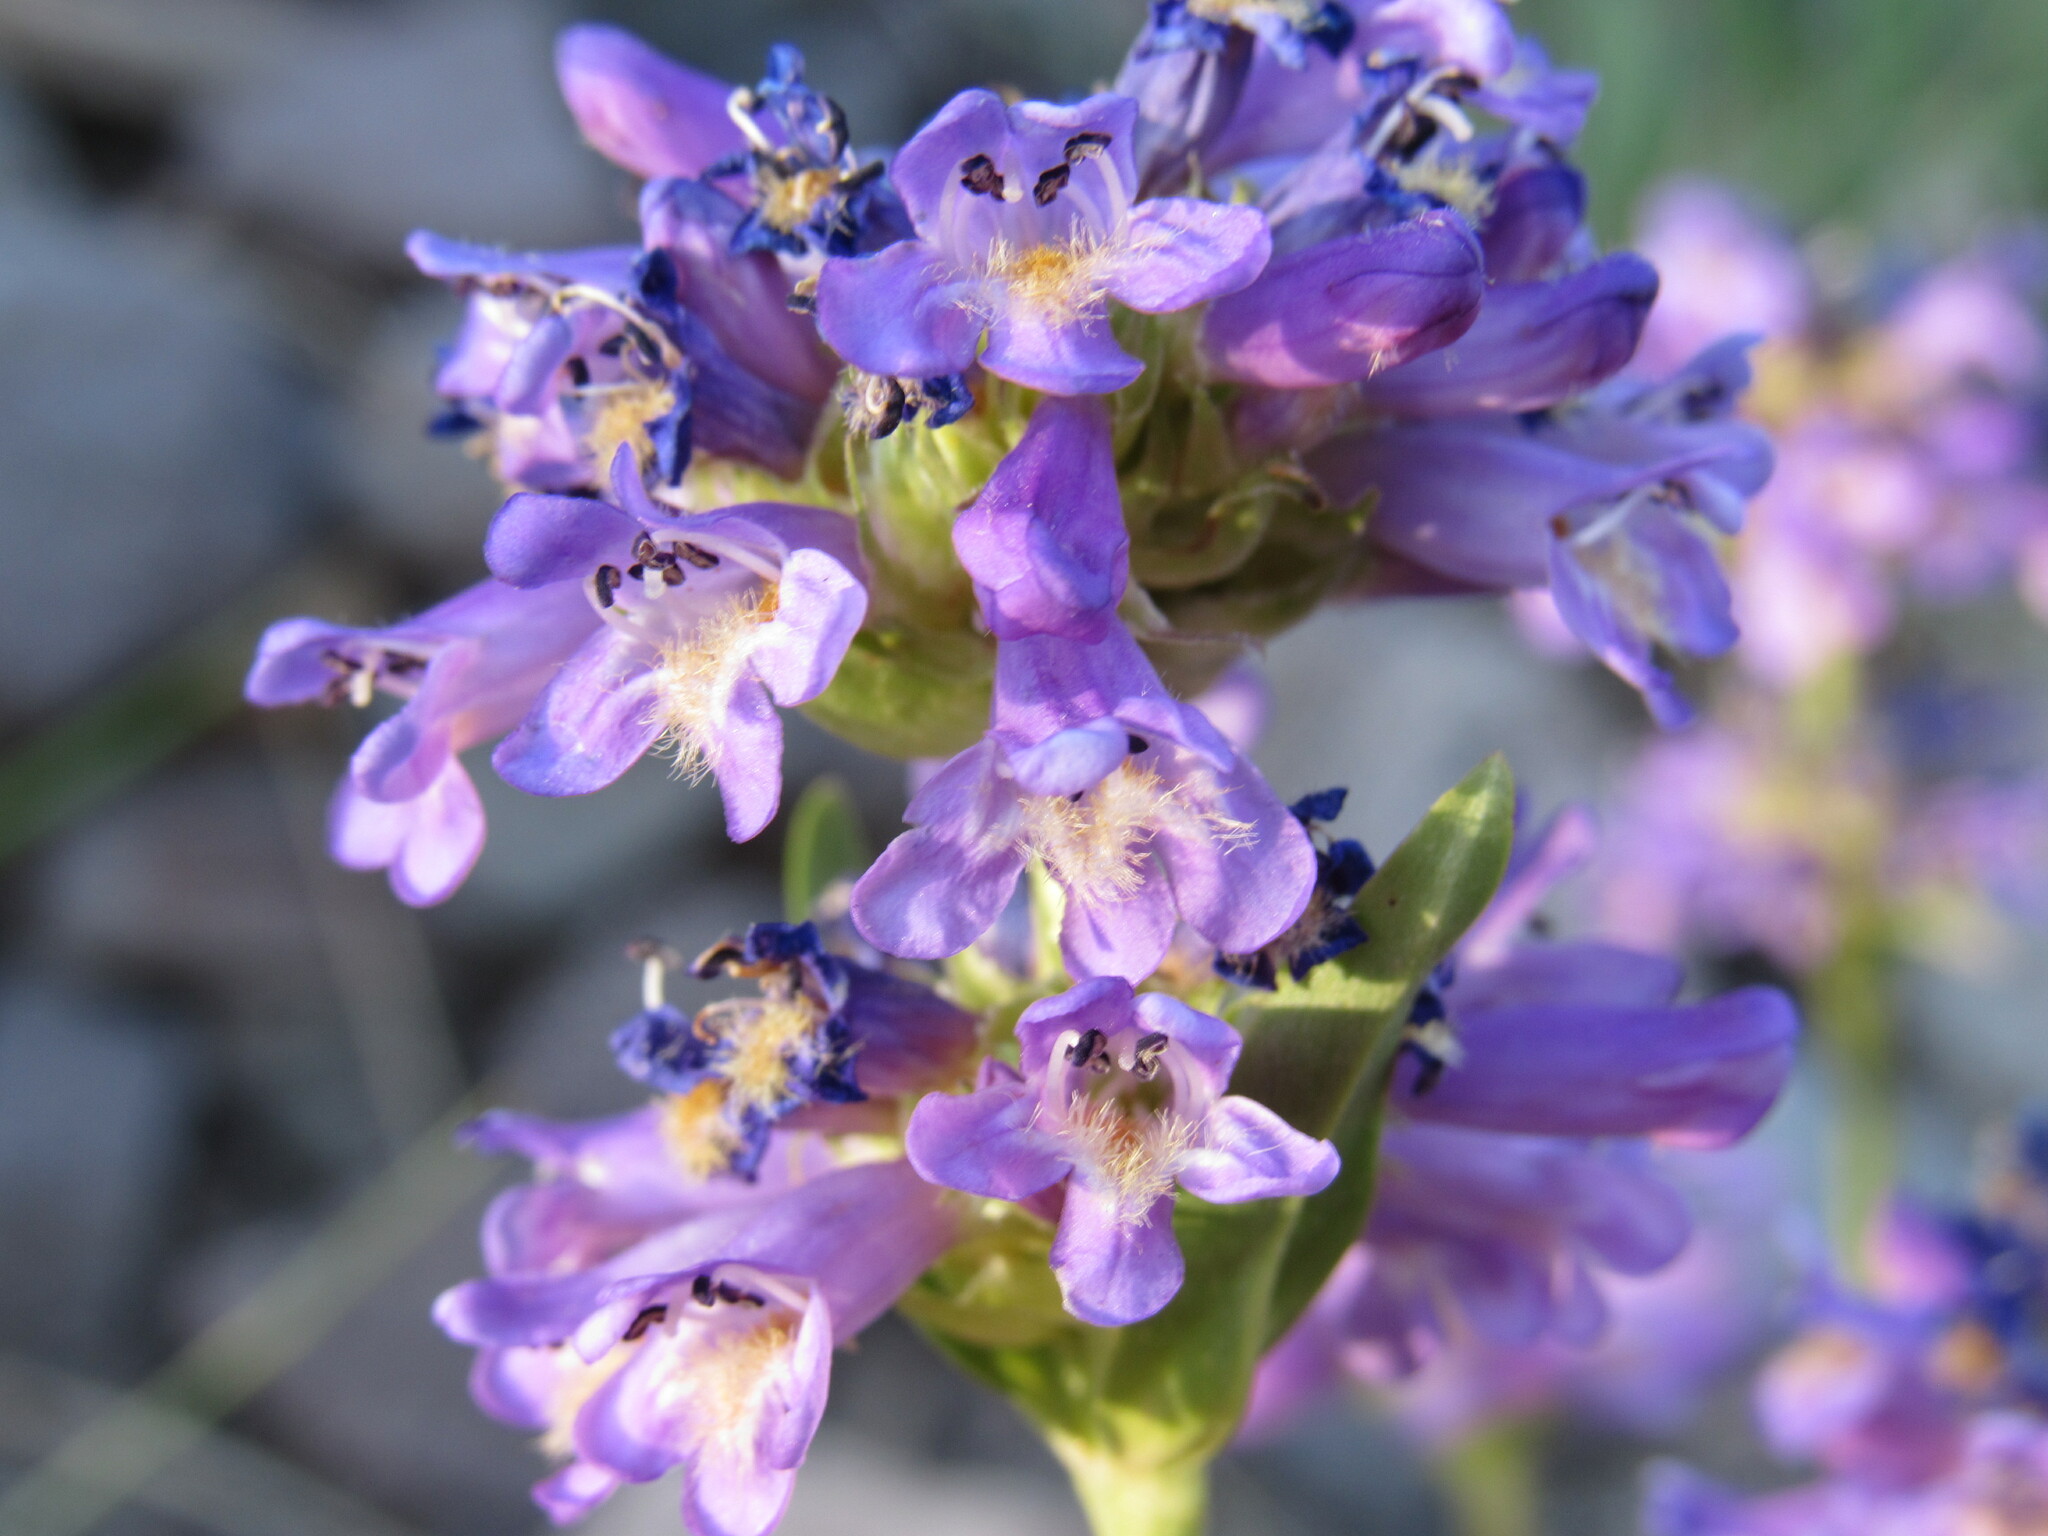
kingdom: Plantae
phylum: Tracheophyta
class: Magnoliopsida
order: Lamiales
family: Plantaginaceae
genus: Penstemon
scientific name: Penstemon rydbergii
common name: Rydberg's beardtongue
